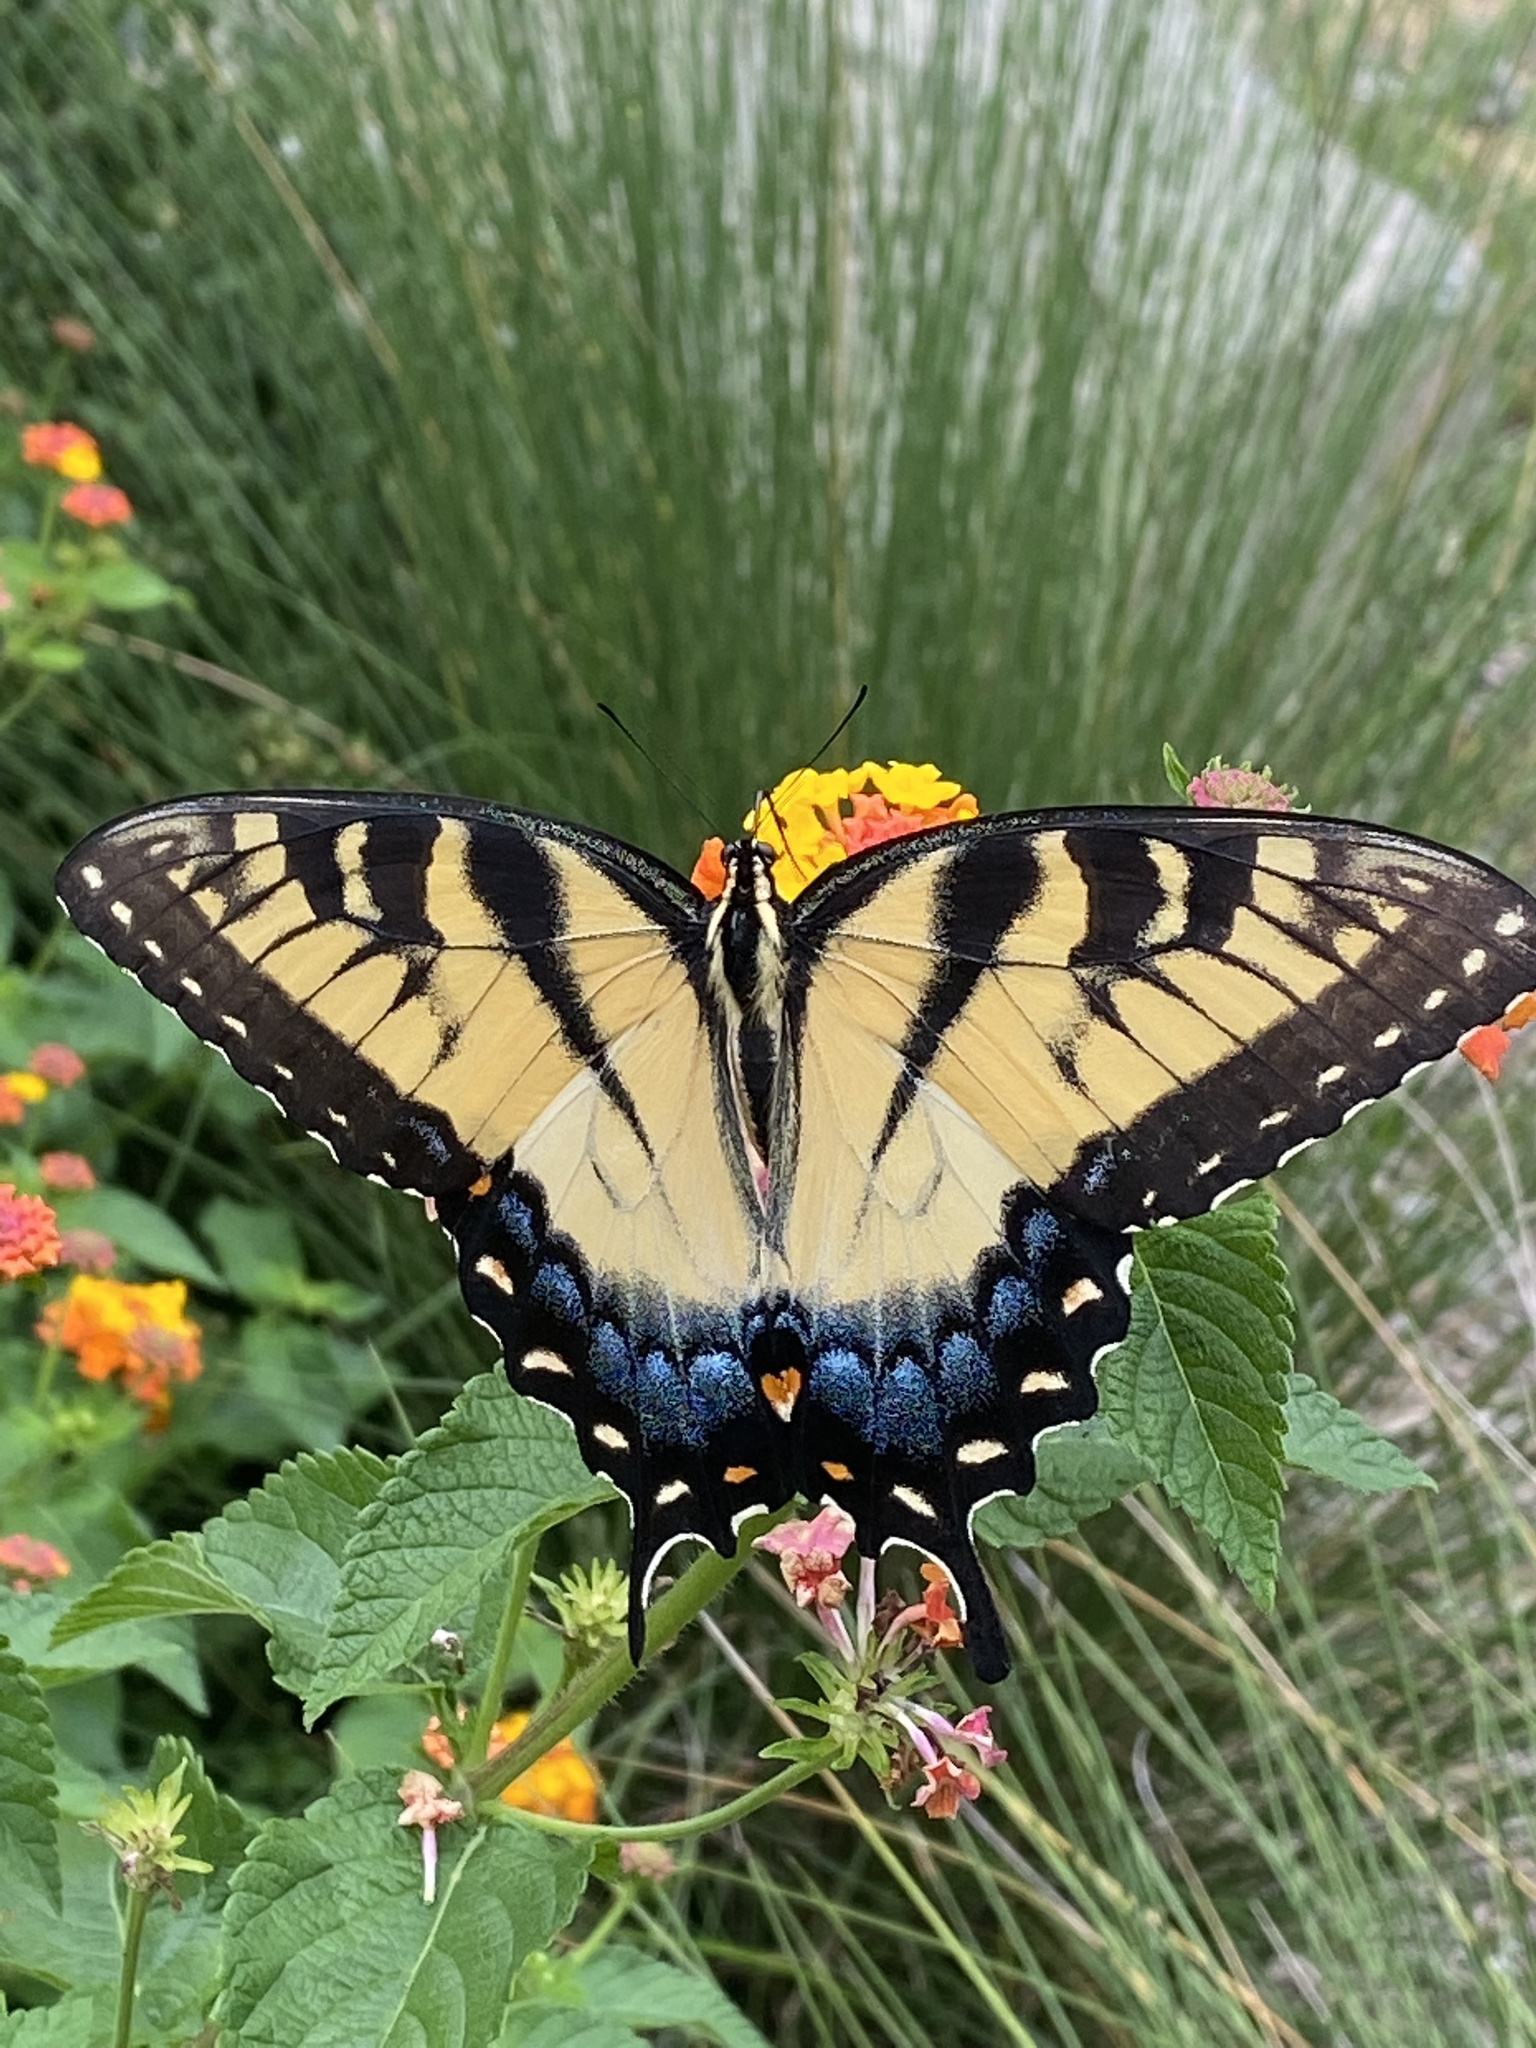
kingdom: Animalia
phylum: Arthropoda
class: Insecta
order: Lepidoptera
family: Papilionidae
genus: Papilio
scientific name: Papilio glaucus
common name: Tiger swallowtail
